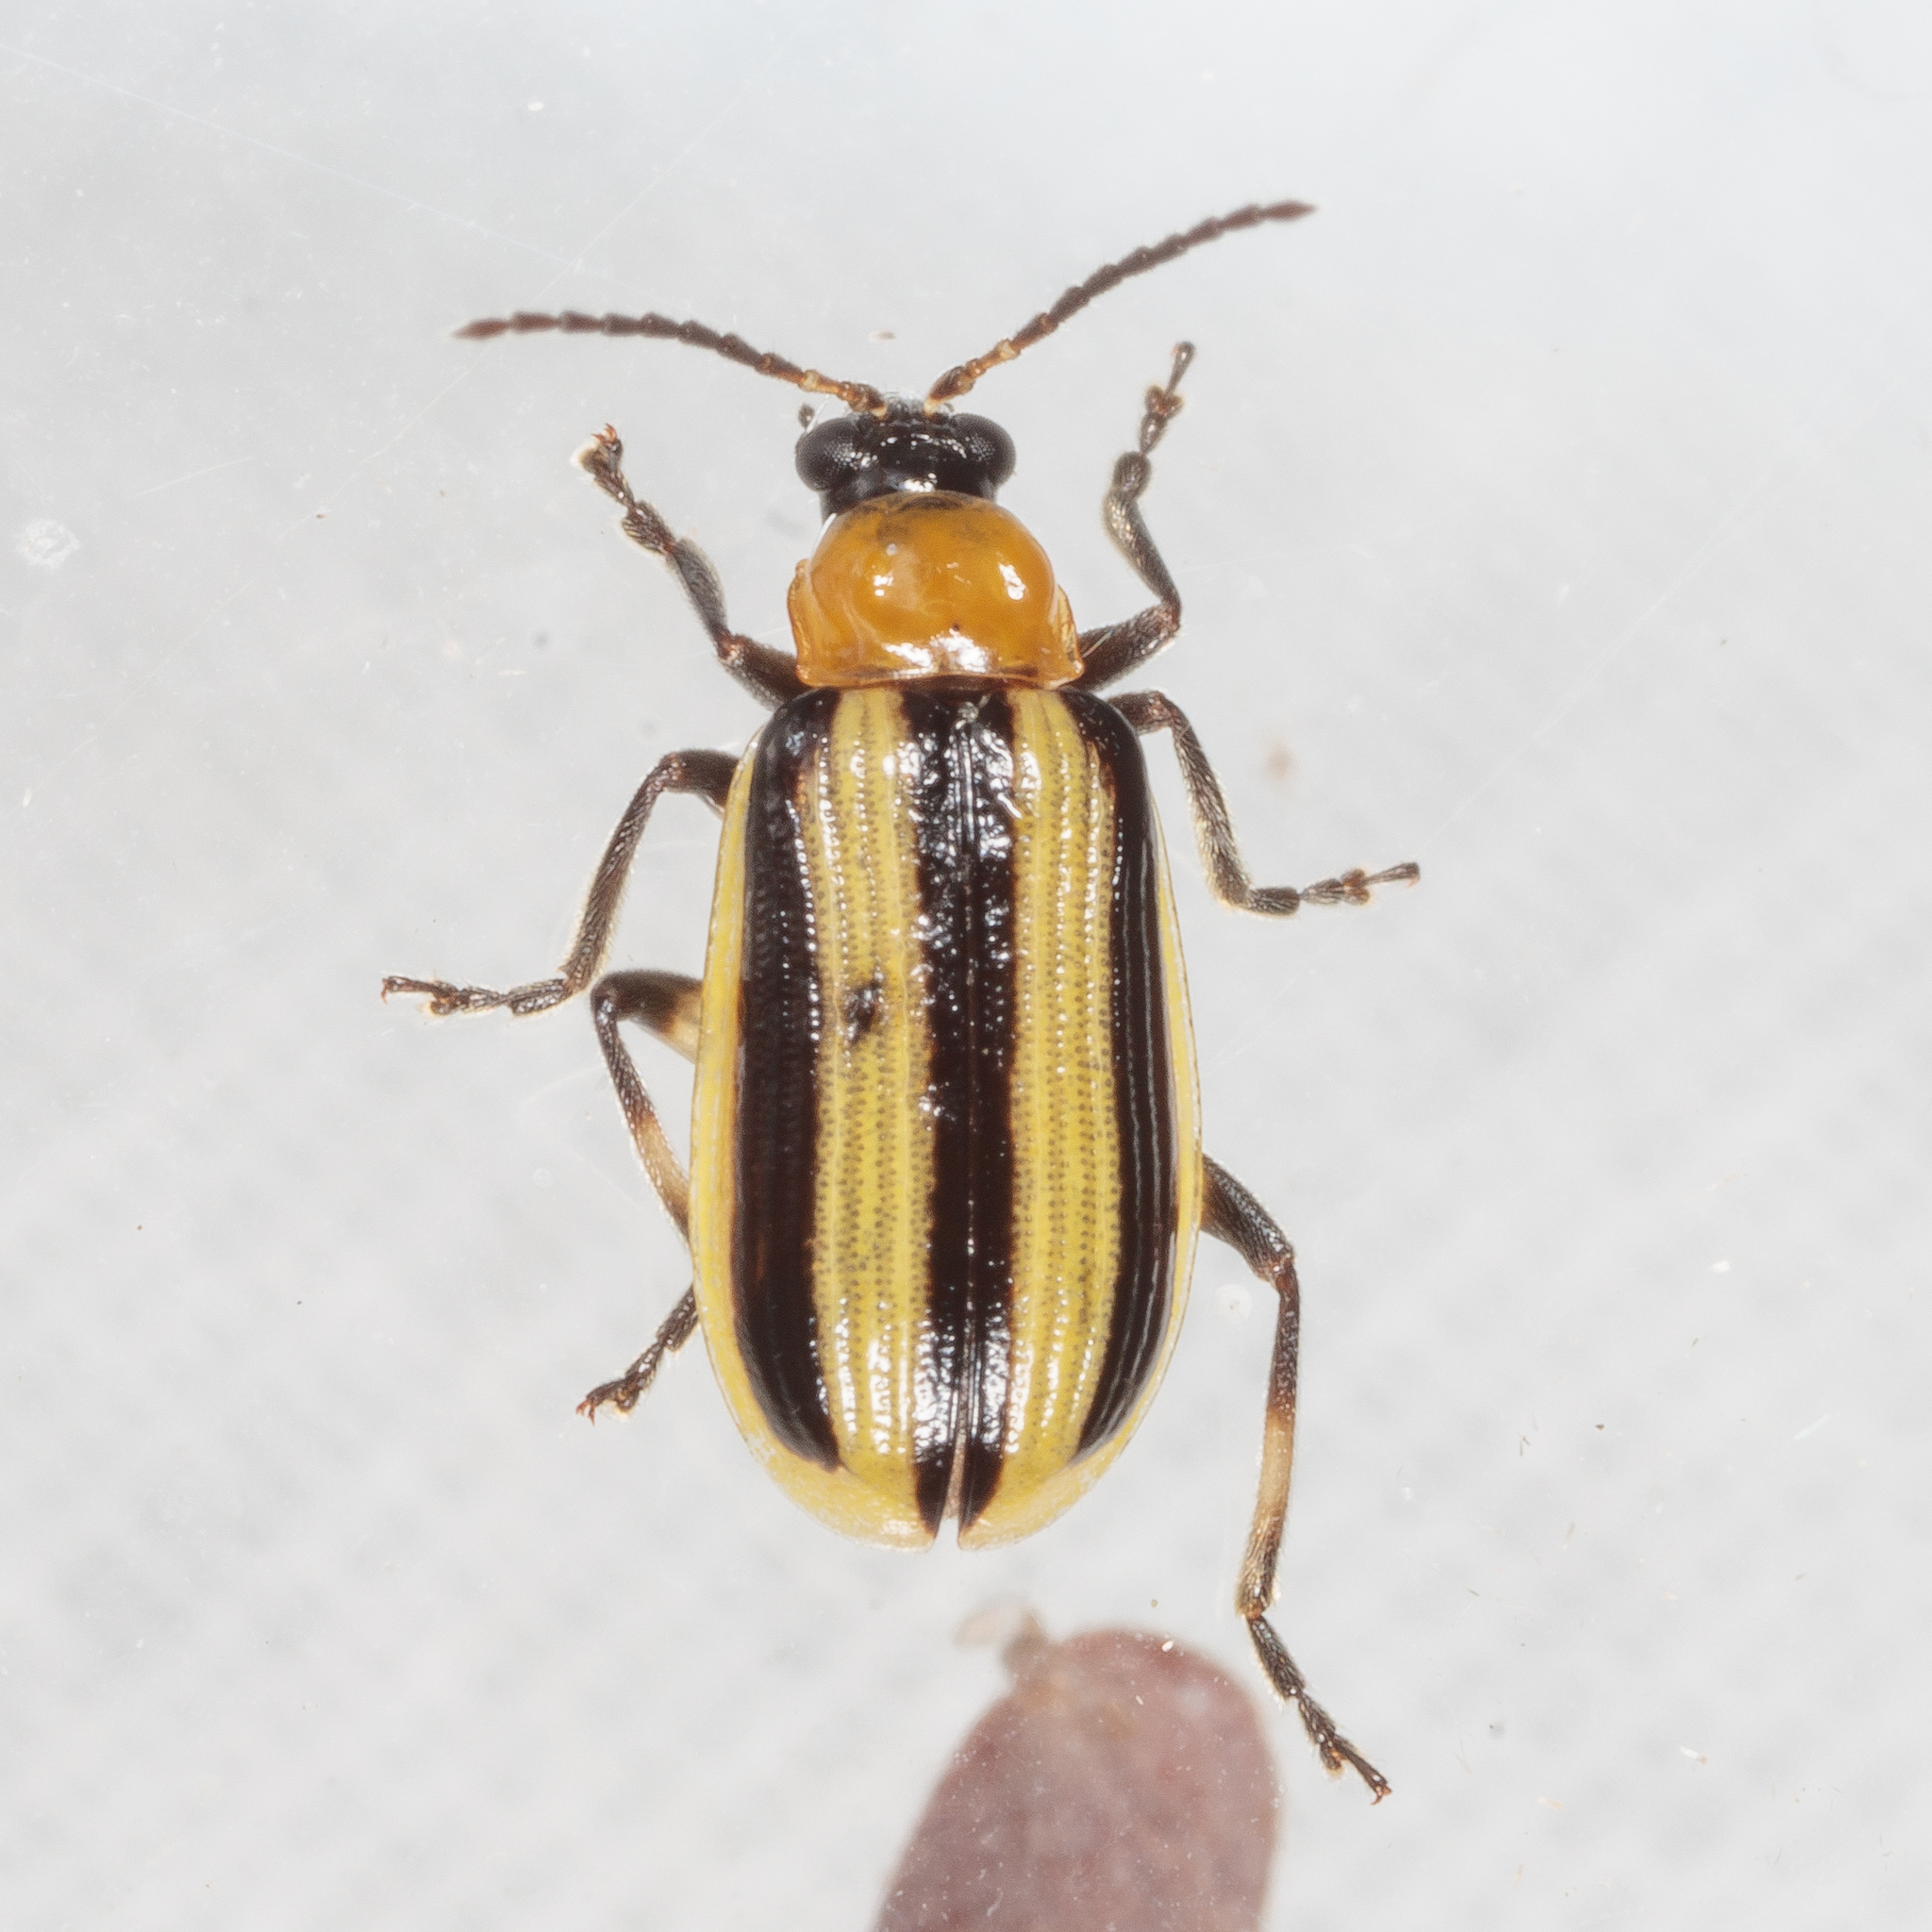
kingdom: Animalia
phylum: Arthropoda
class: Insecta
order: Coleoptera
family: Chrysomelidae
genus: Acalymma
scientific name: Acalymma vittatum
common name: Striped cucumber beetle
